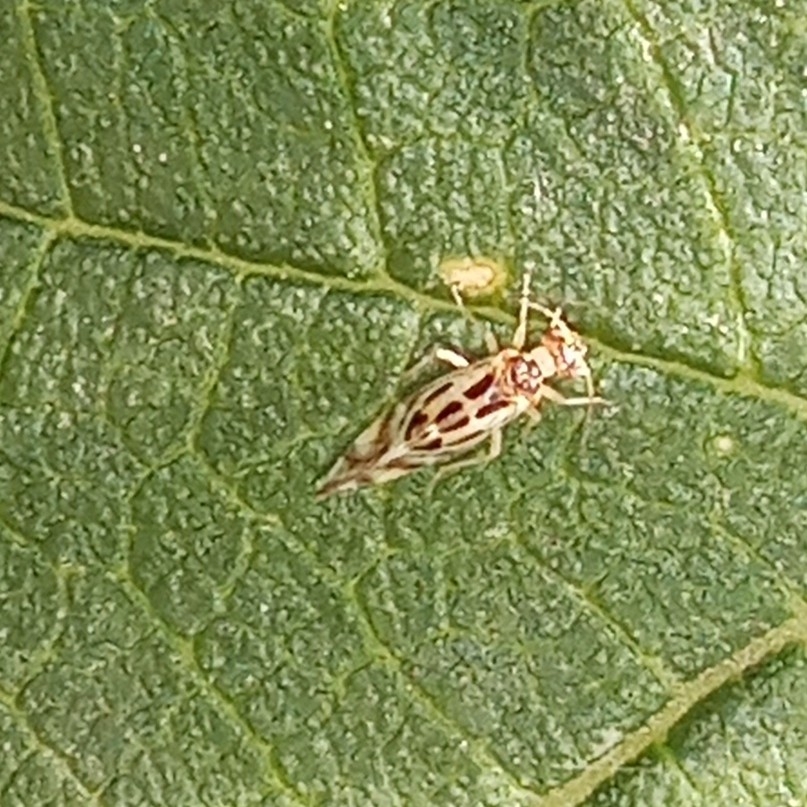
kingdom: Animalia
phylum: Arthropoda
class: Insecta
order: Psocodea
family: Stenopsocidae
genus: Graphopsocus
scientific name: Graphopsocus cruciatus
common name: Lizard bark louse
